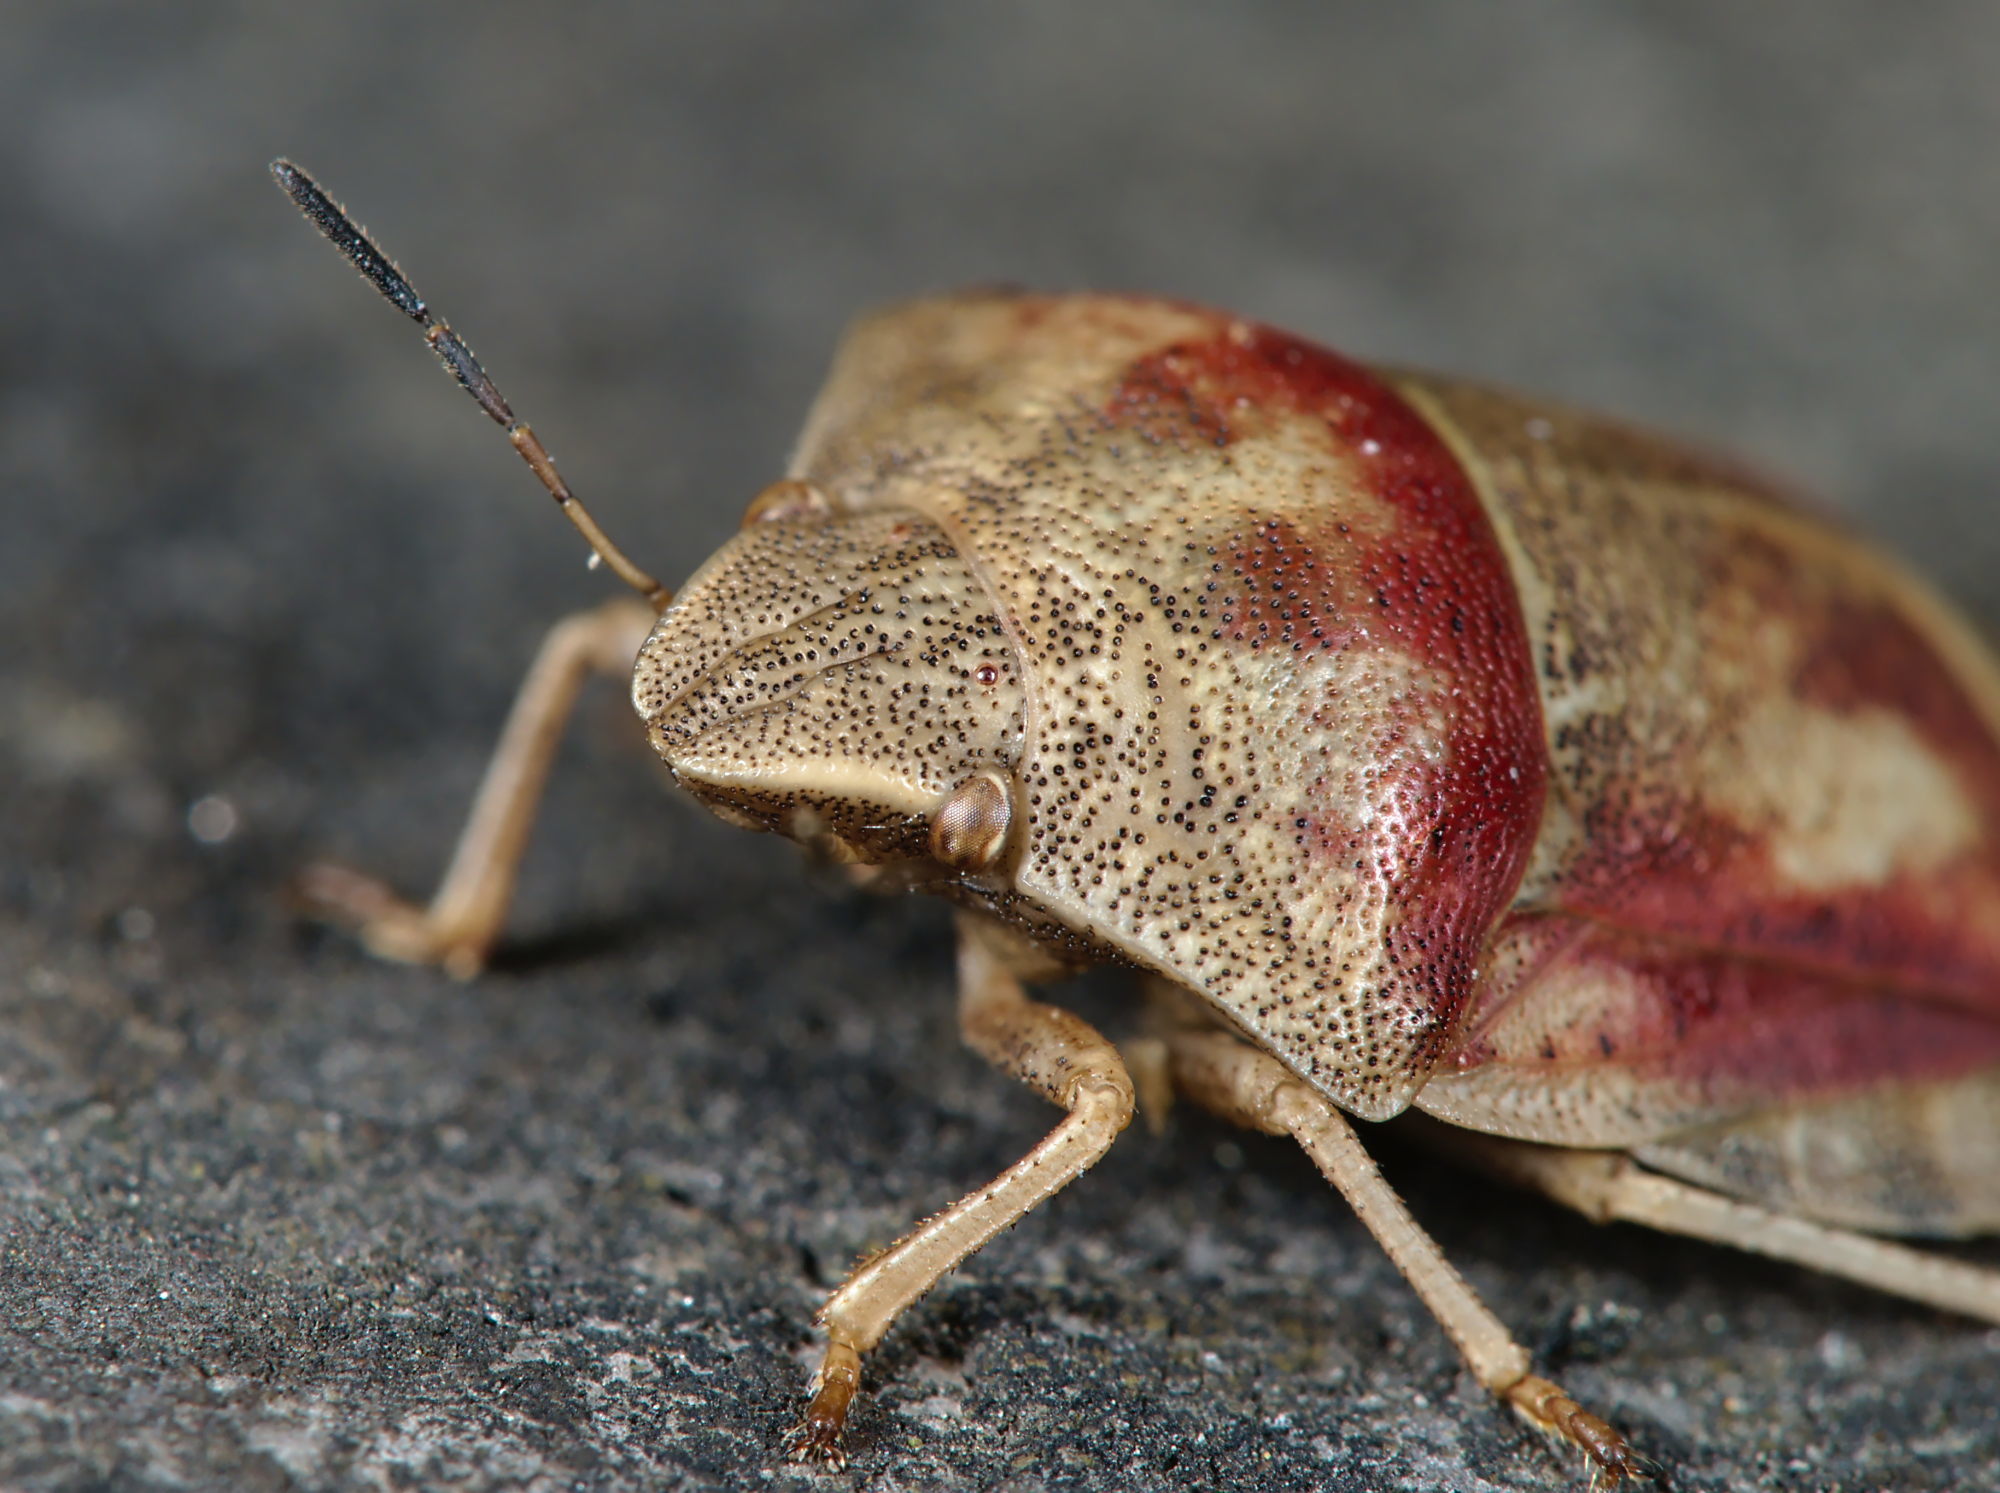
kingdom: Animalia
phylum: Arthropoda
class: Insecta
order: Hemiptera
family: Scutelleridae
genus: Eurygaster
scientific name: Eurygaster testudinaria
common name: Tortoise bug
